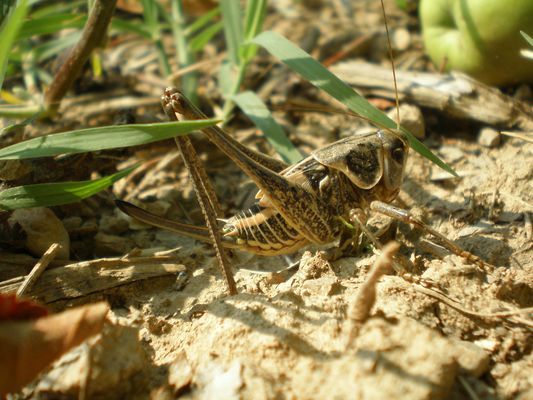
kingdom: Animalia
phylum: Arthropoda
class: Insecta
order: Orthoptera
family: Tettigoniidae
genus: Decticus
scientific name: Decticus albifrons
